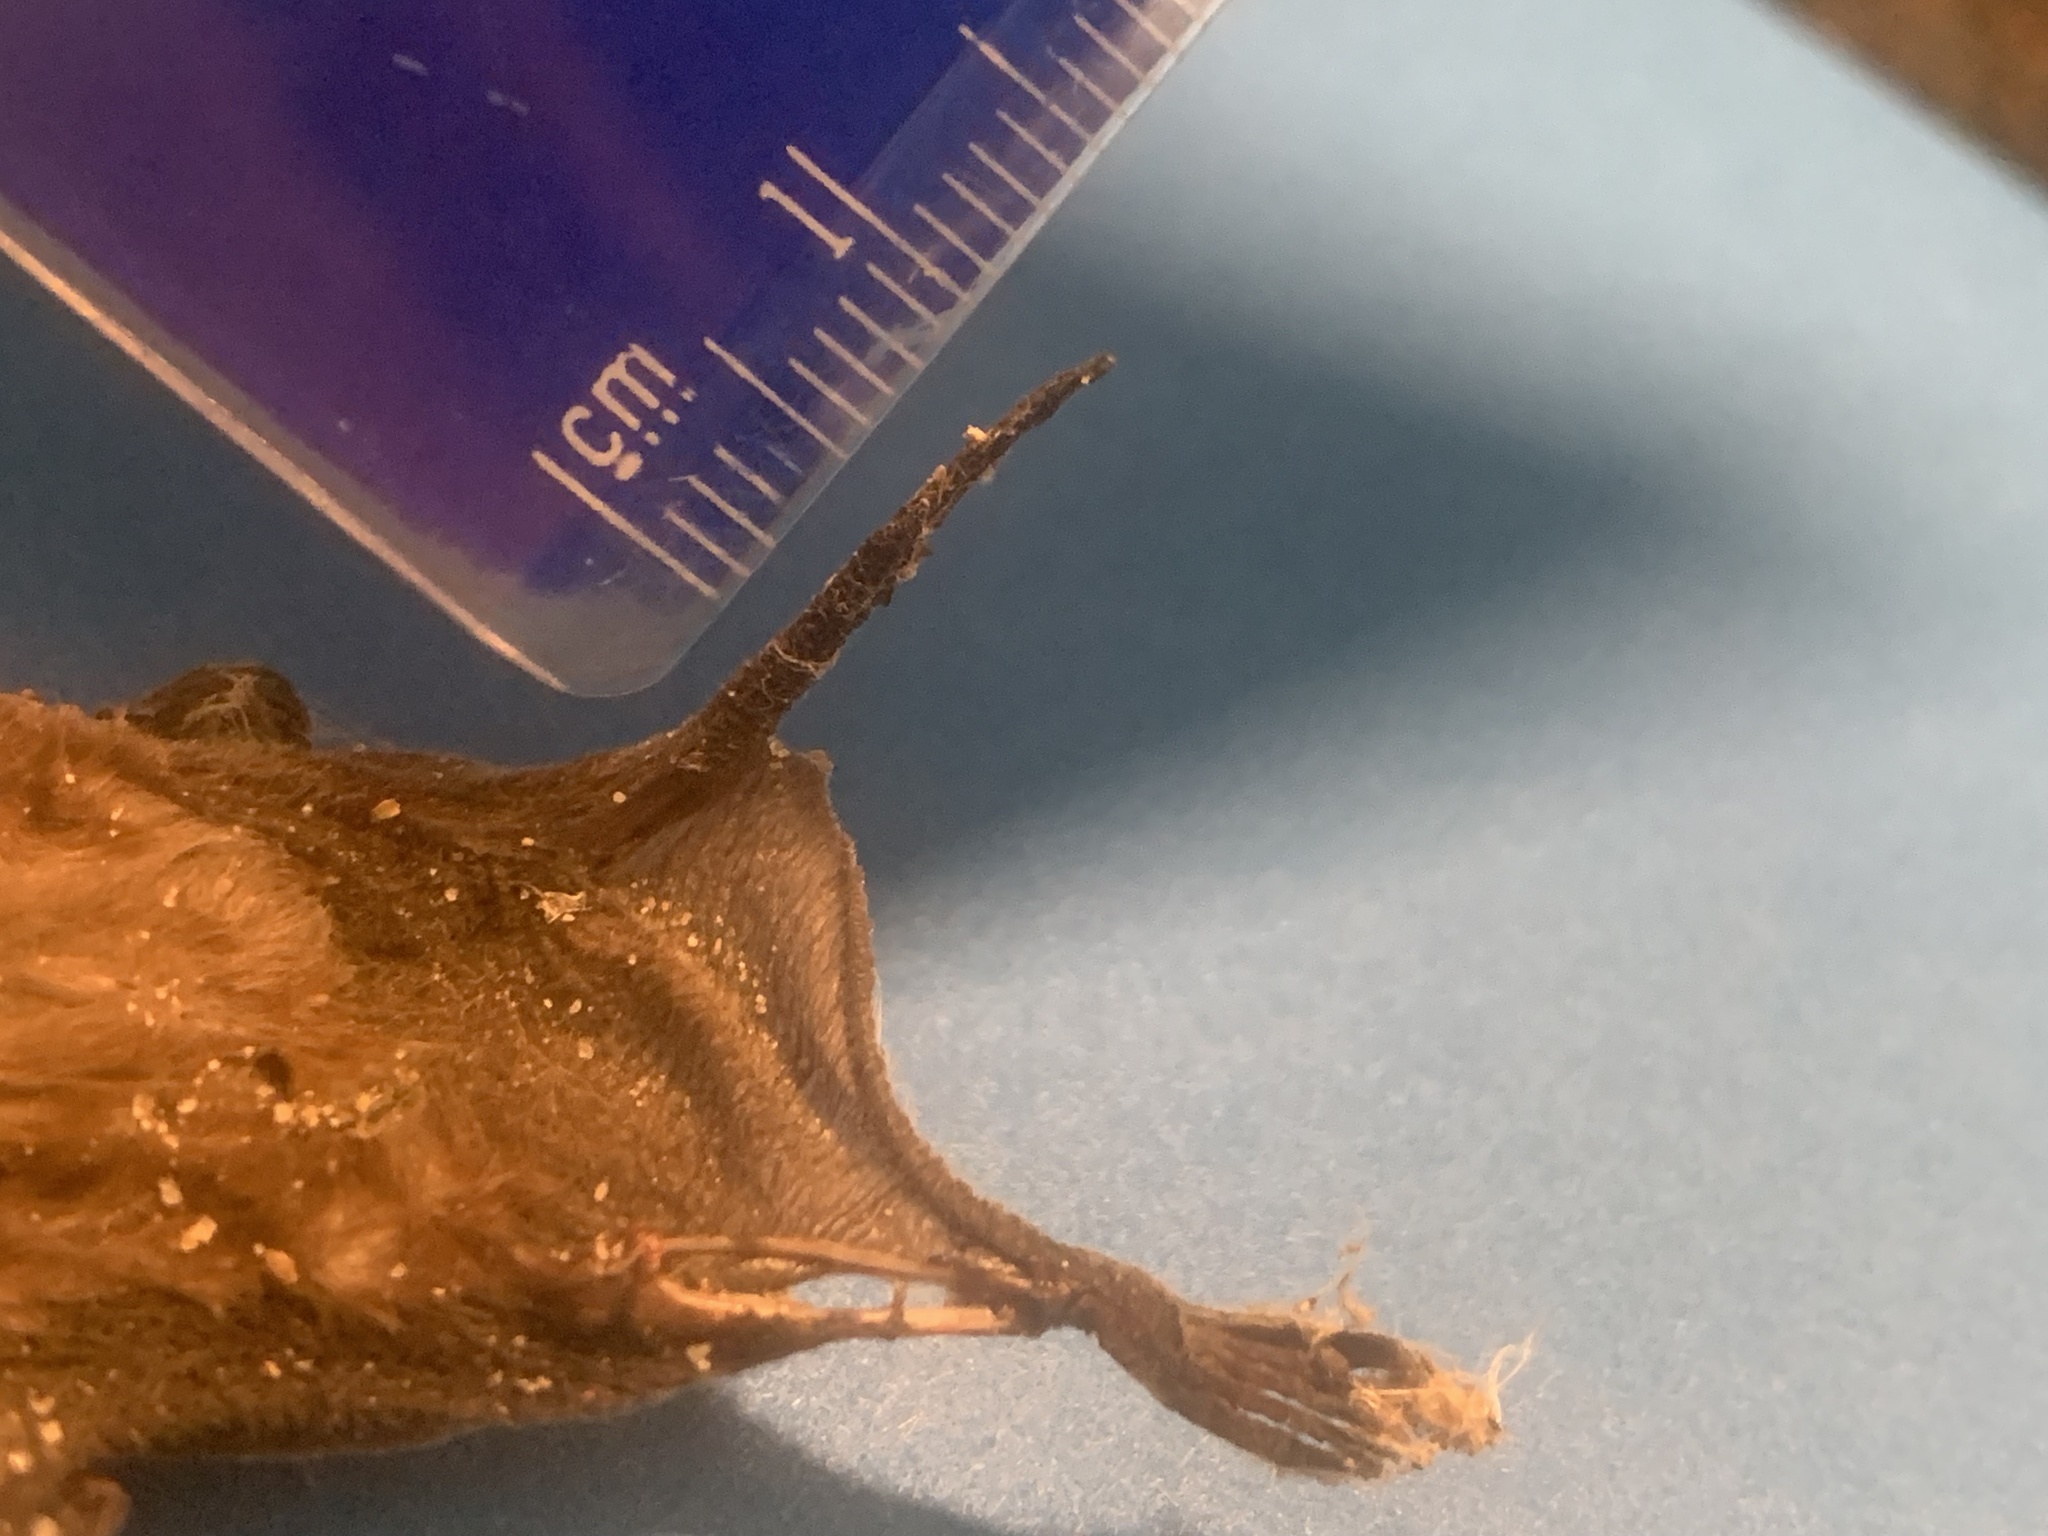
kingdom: Animalia
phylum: Chordata
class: Mammalia
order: Chiroptera
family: Molossidae
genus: Tadarida
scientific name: Tadarida brasiliensis
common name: Mexican free-tailed bat
